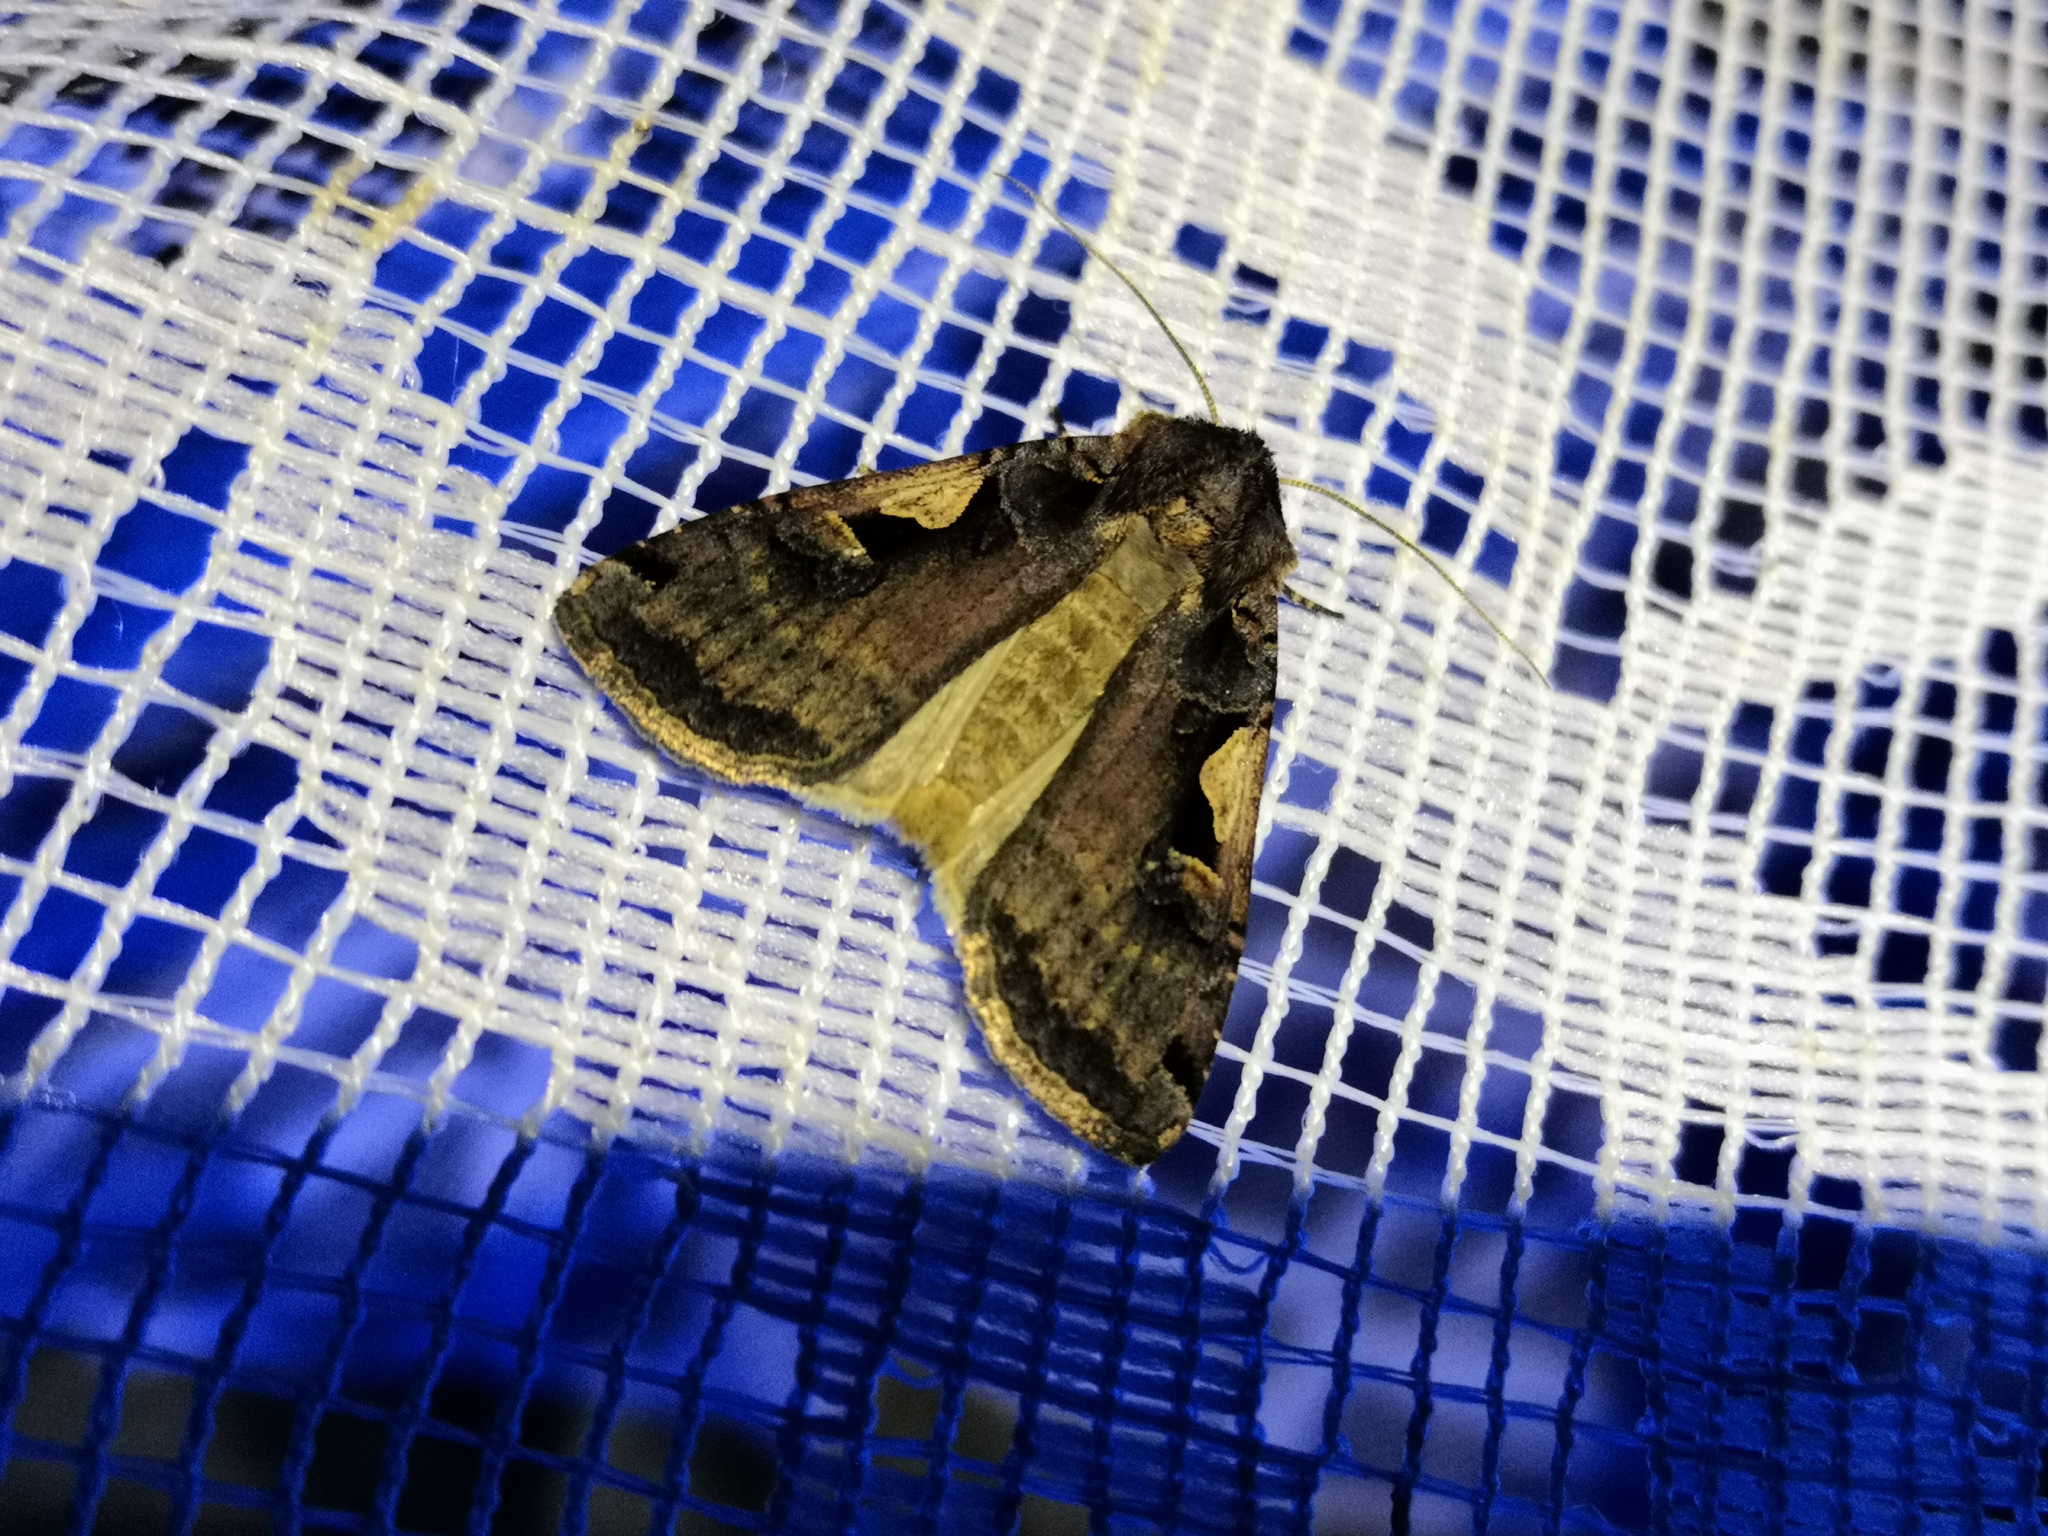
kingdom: Animalia
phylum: Arthropoda
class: Insecta
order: Lepidoptera
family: Noctuidae
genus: Xestia
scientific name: Xestia c-nigrum
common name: Setaceous hebrew character
